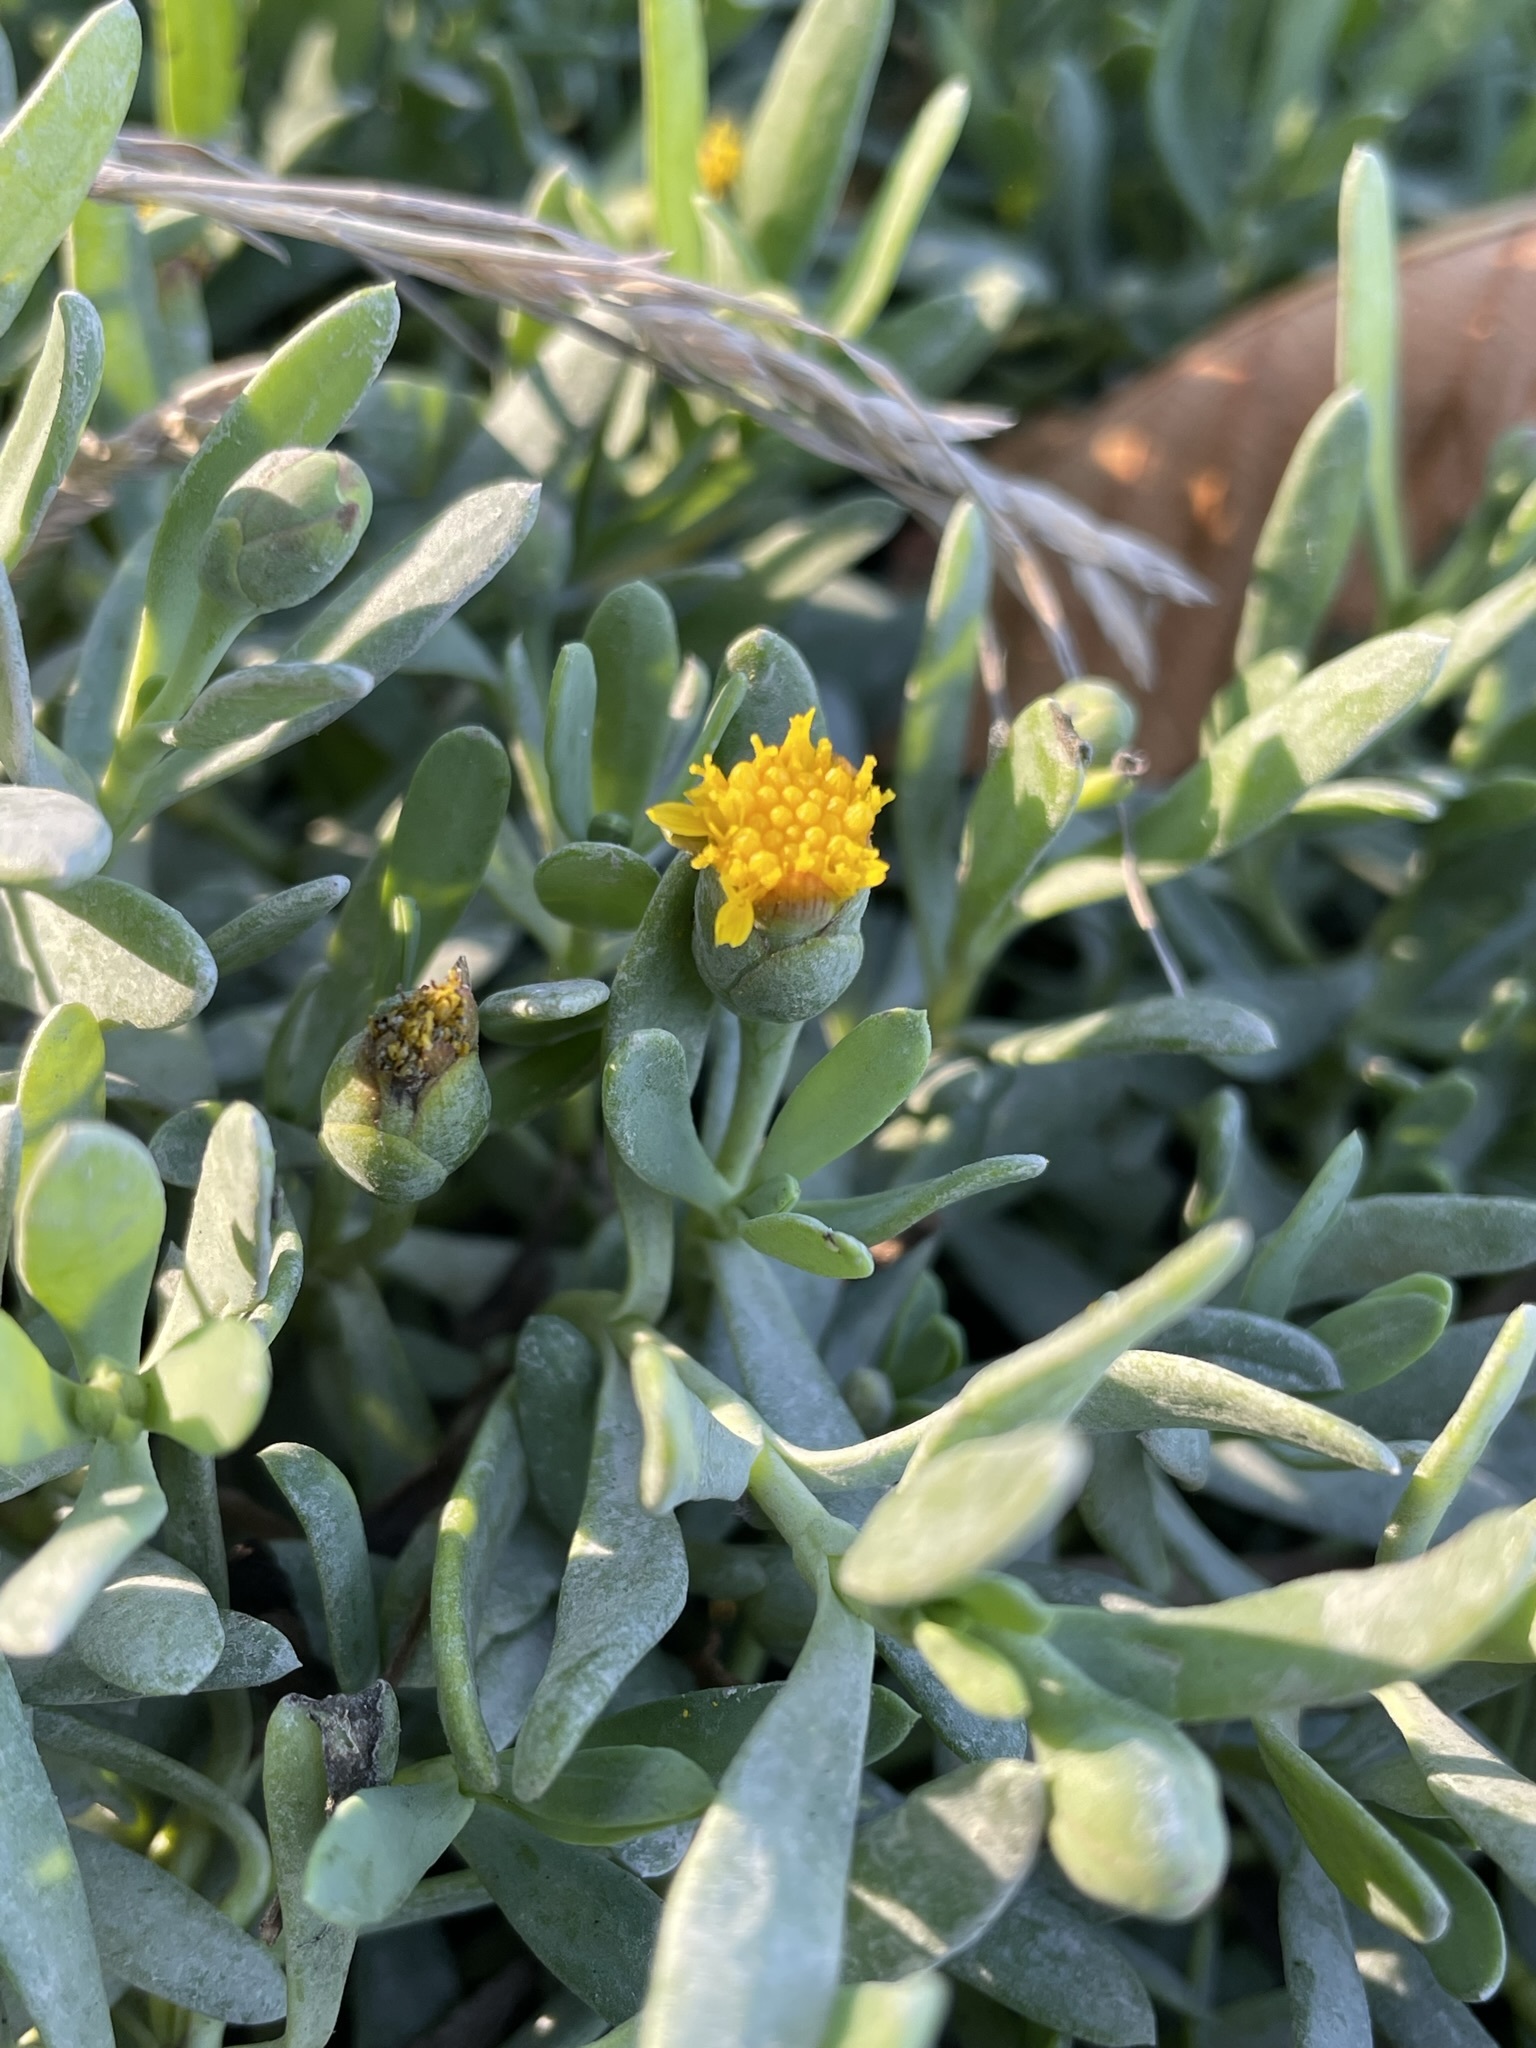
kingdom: Plantae
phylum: Tracheophyta
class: Magnoliopsida
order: Asterales
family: Asteraceae
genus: Jaumea
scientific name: Jaumea carnosa
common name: Fleshy jaumea
